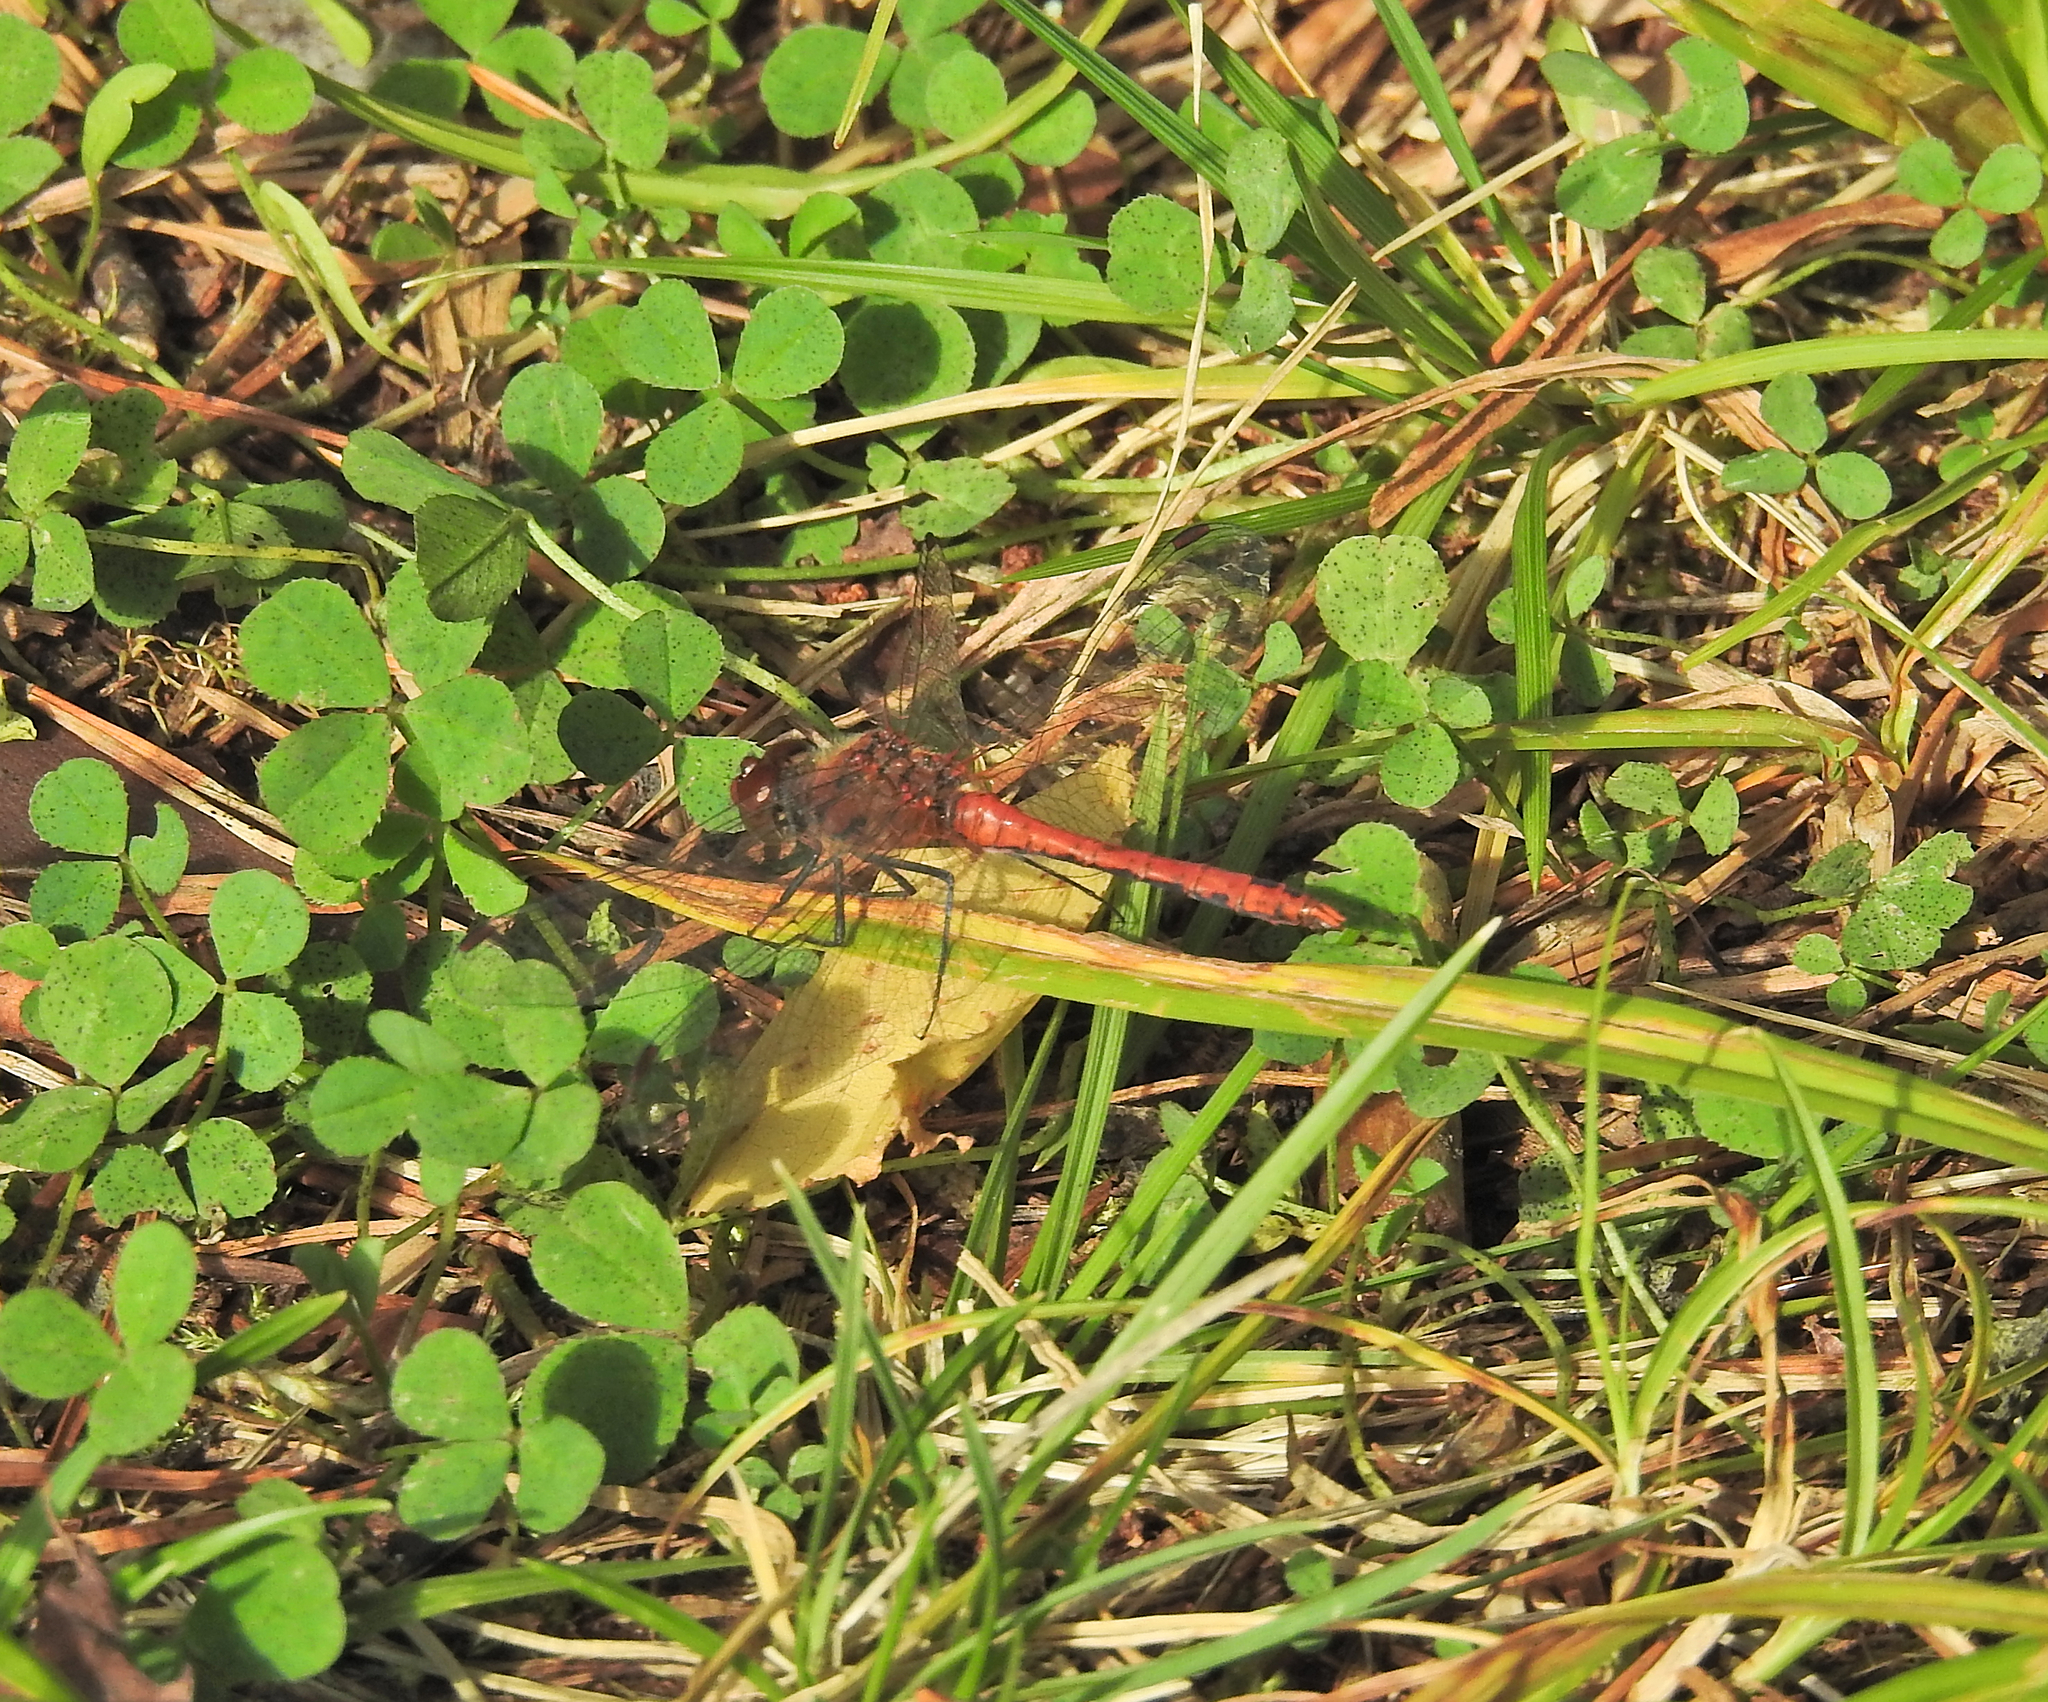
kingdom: Animalia
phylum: Arthropoda
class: Insecta
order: Odonata
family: Libellulidae
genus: Sympetrum
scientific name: Sympetrum sanguineum
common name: Ruddy darter
